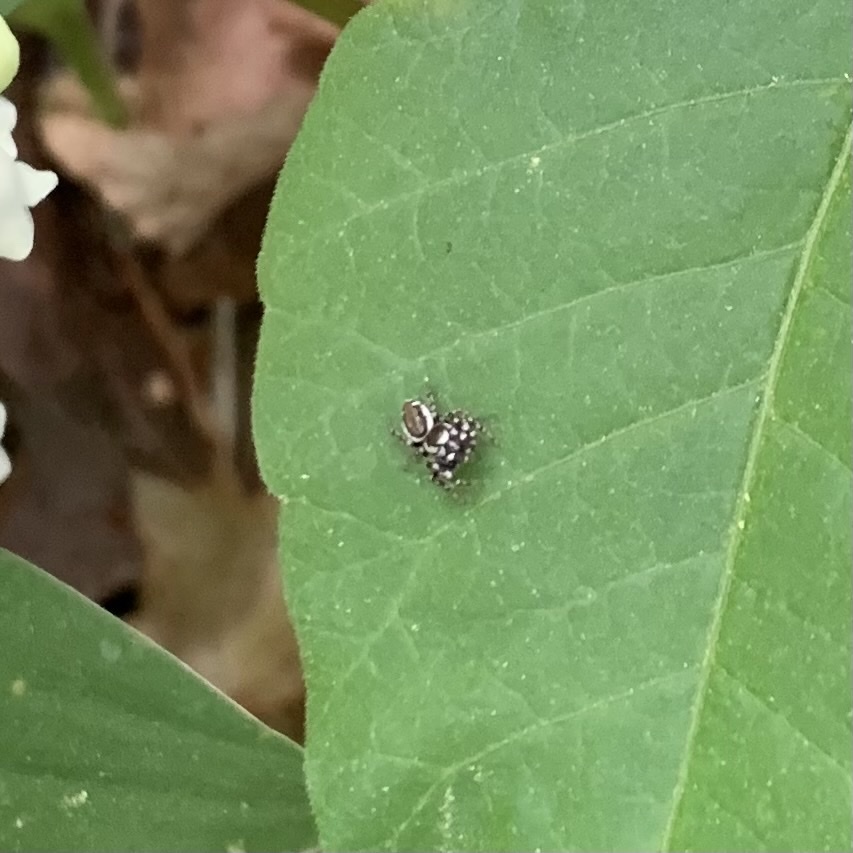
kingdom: Animalia
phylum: Arthropoda
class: Arachnida
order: Araneae
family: Salticidae
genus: Pelegrina
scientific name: Pelegrina proterva
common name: Common white-cheeked jumping spider
